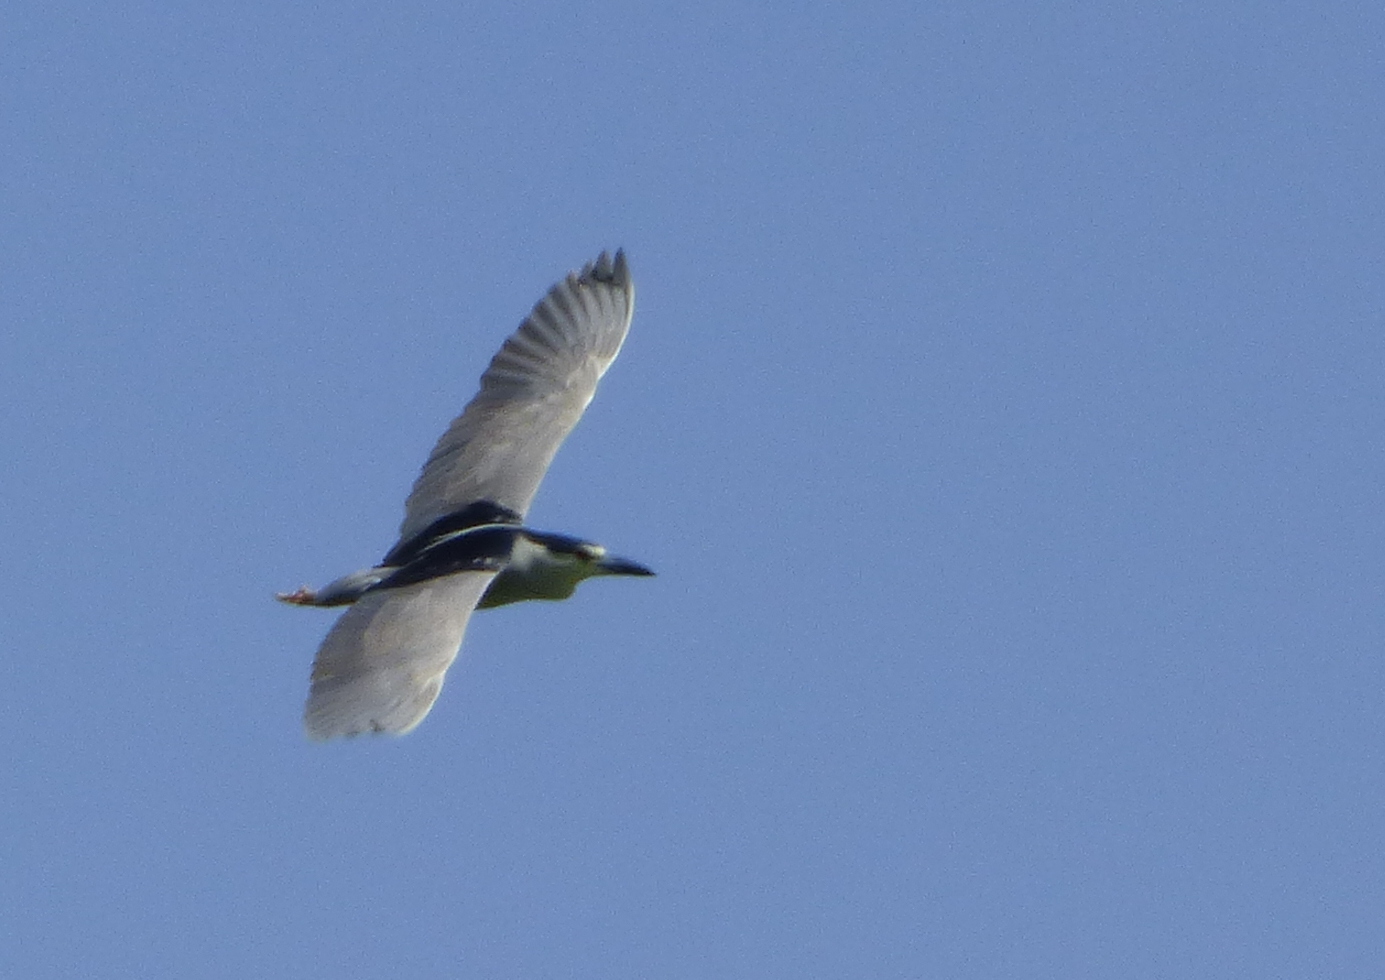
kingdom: Animalia
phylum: Chordata
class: Aves
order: Pelecaniformes
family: Ardeidae
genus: Nycticorax
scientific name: Nycticorax nycticorax
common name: Black-crowned night heron
